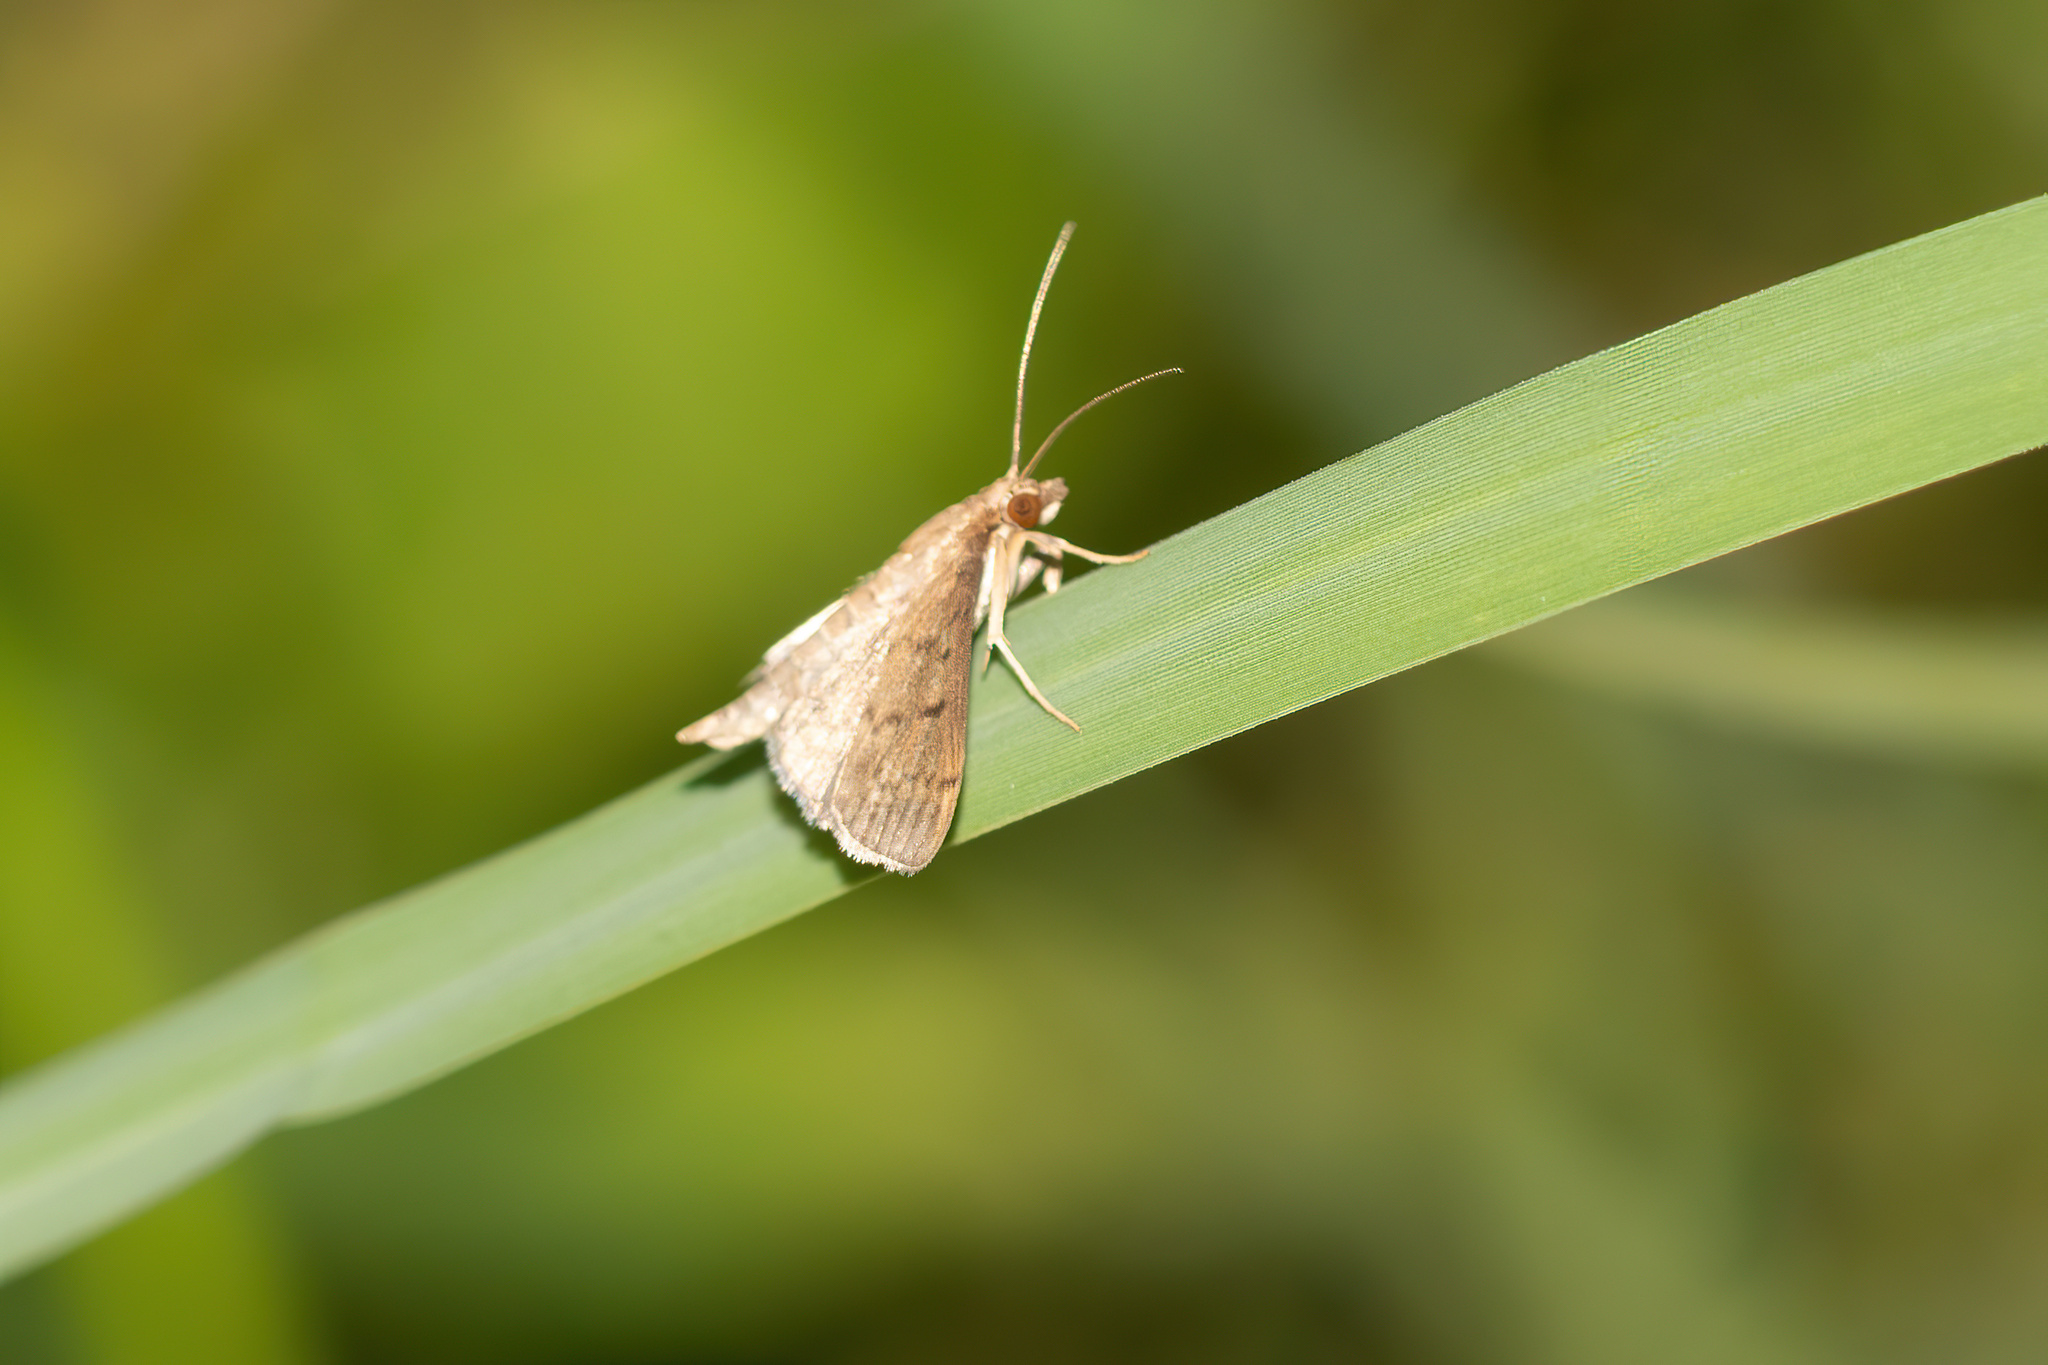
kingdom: Animalia
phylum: Arthropoda
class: Insecta
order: Lepidoptera
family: Crambidae
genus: Herpetogramma
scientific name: Herpetogramma phaeopteralis
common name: Dusky herpetogramma moth
